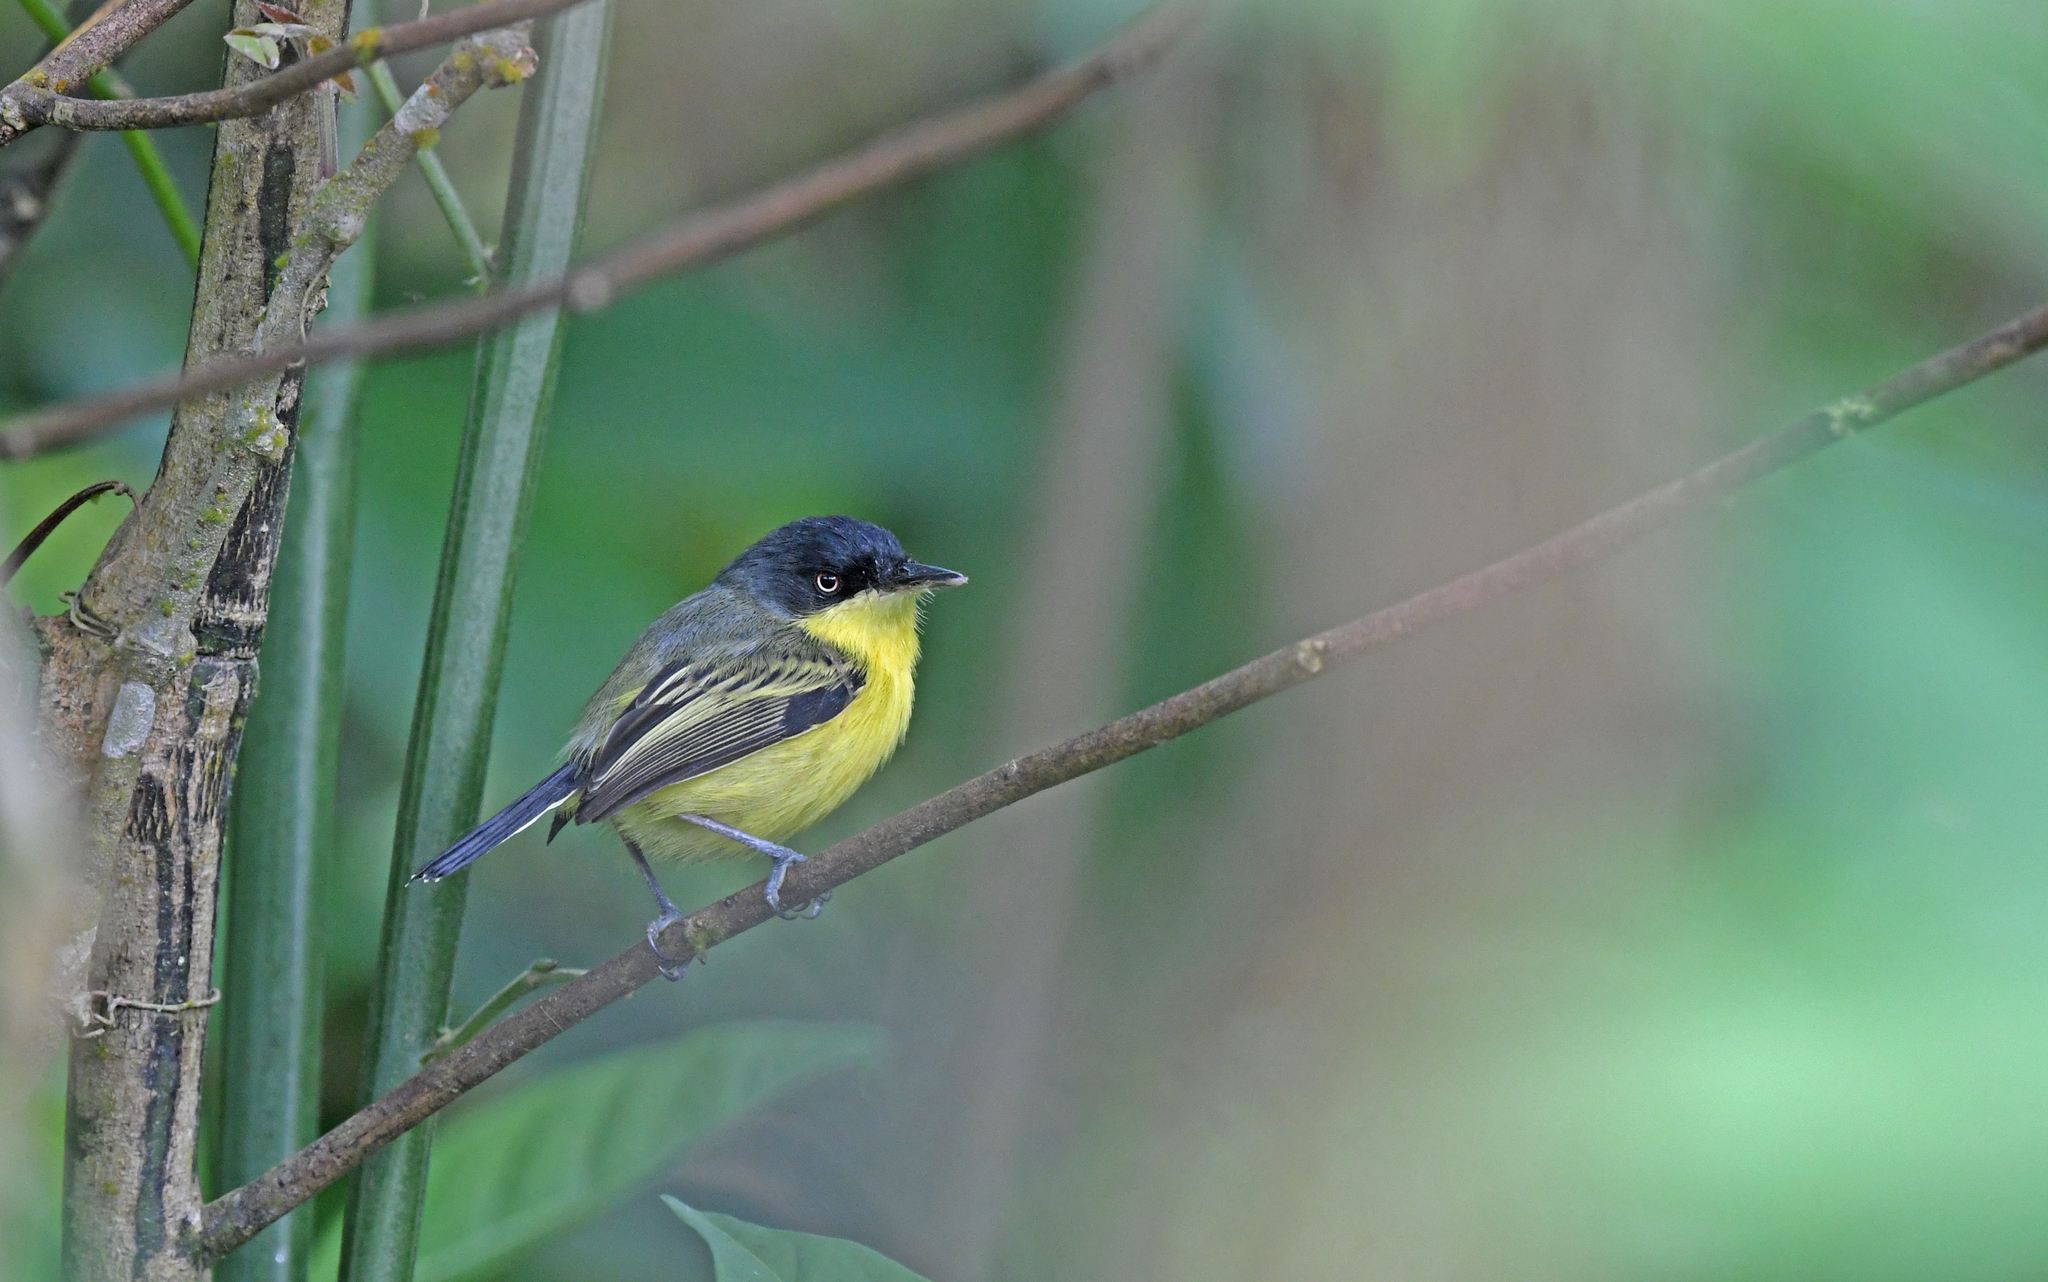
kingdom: Animalia
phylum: Chordata
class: Aves
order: Passeriformes
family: Tyrannidae
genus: Todirostrum
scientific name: Todirostrum cinereum
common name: Common tody-flycatcher
